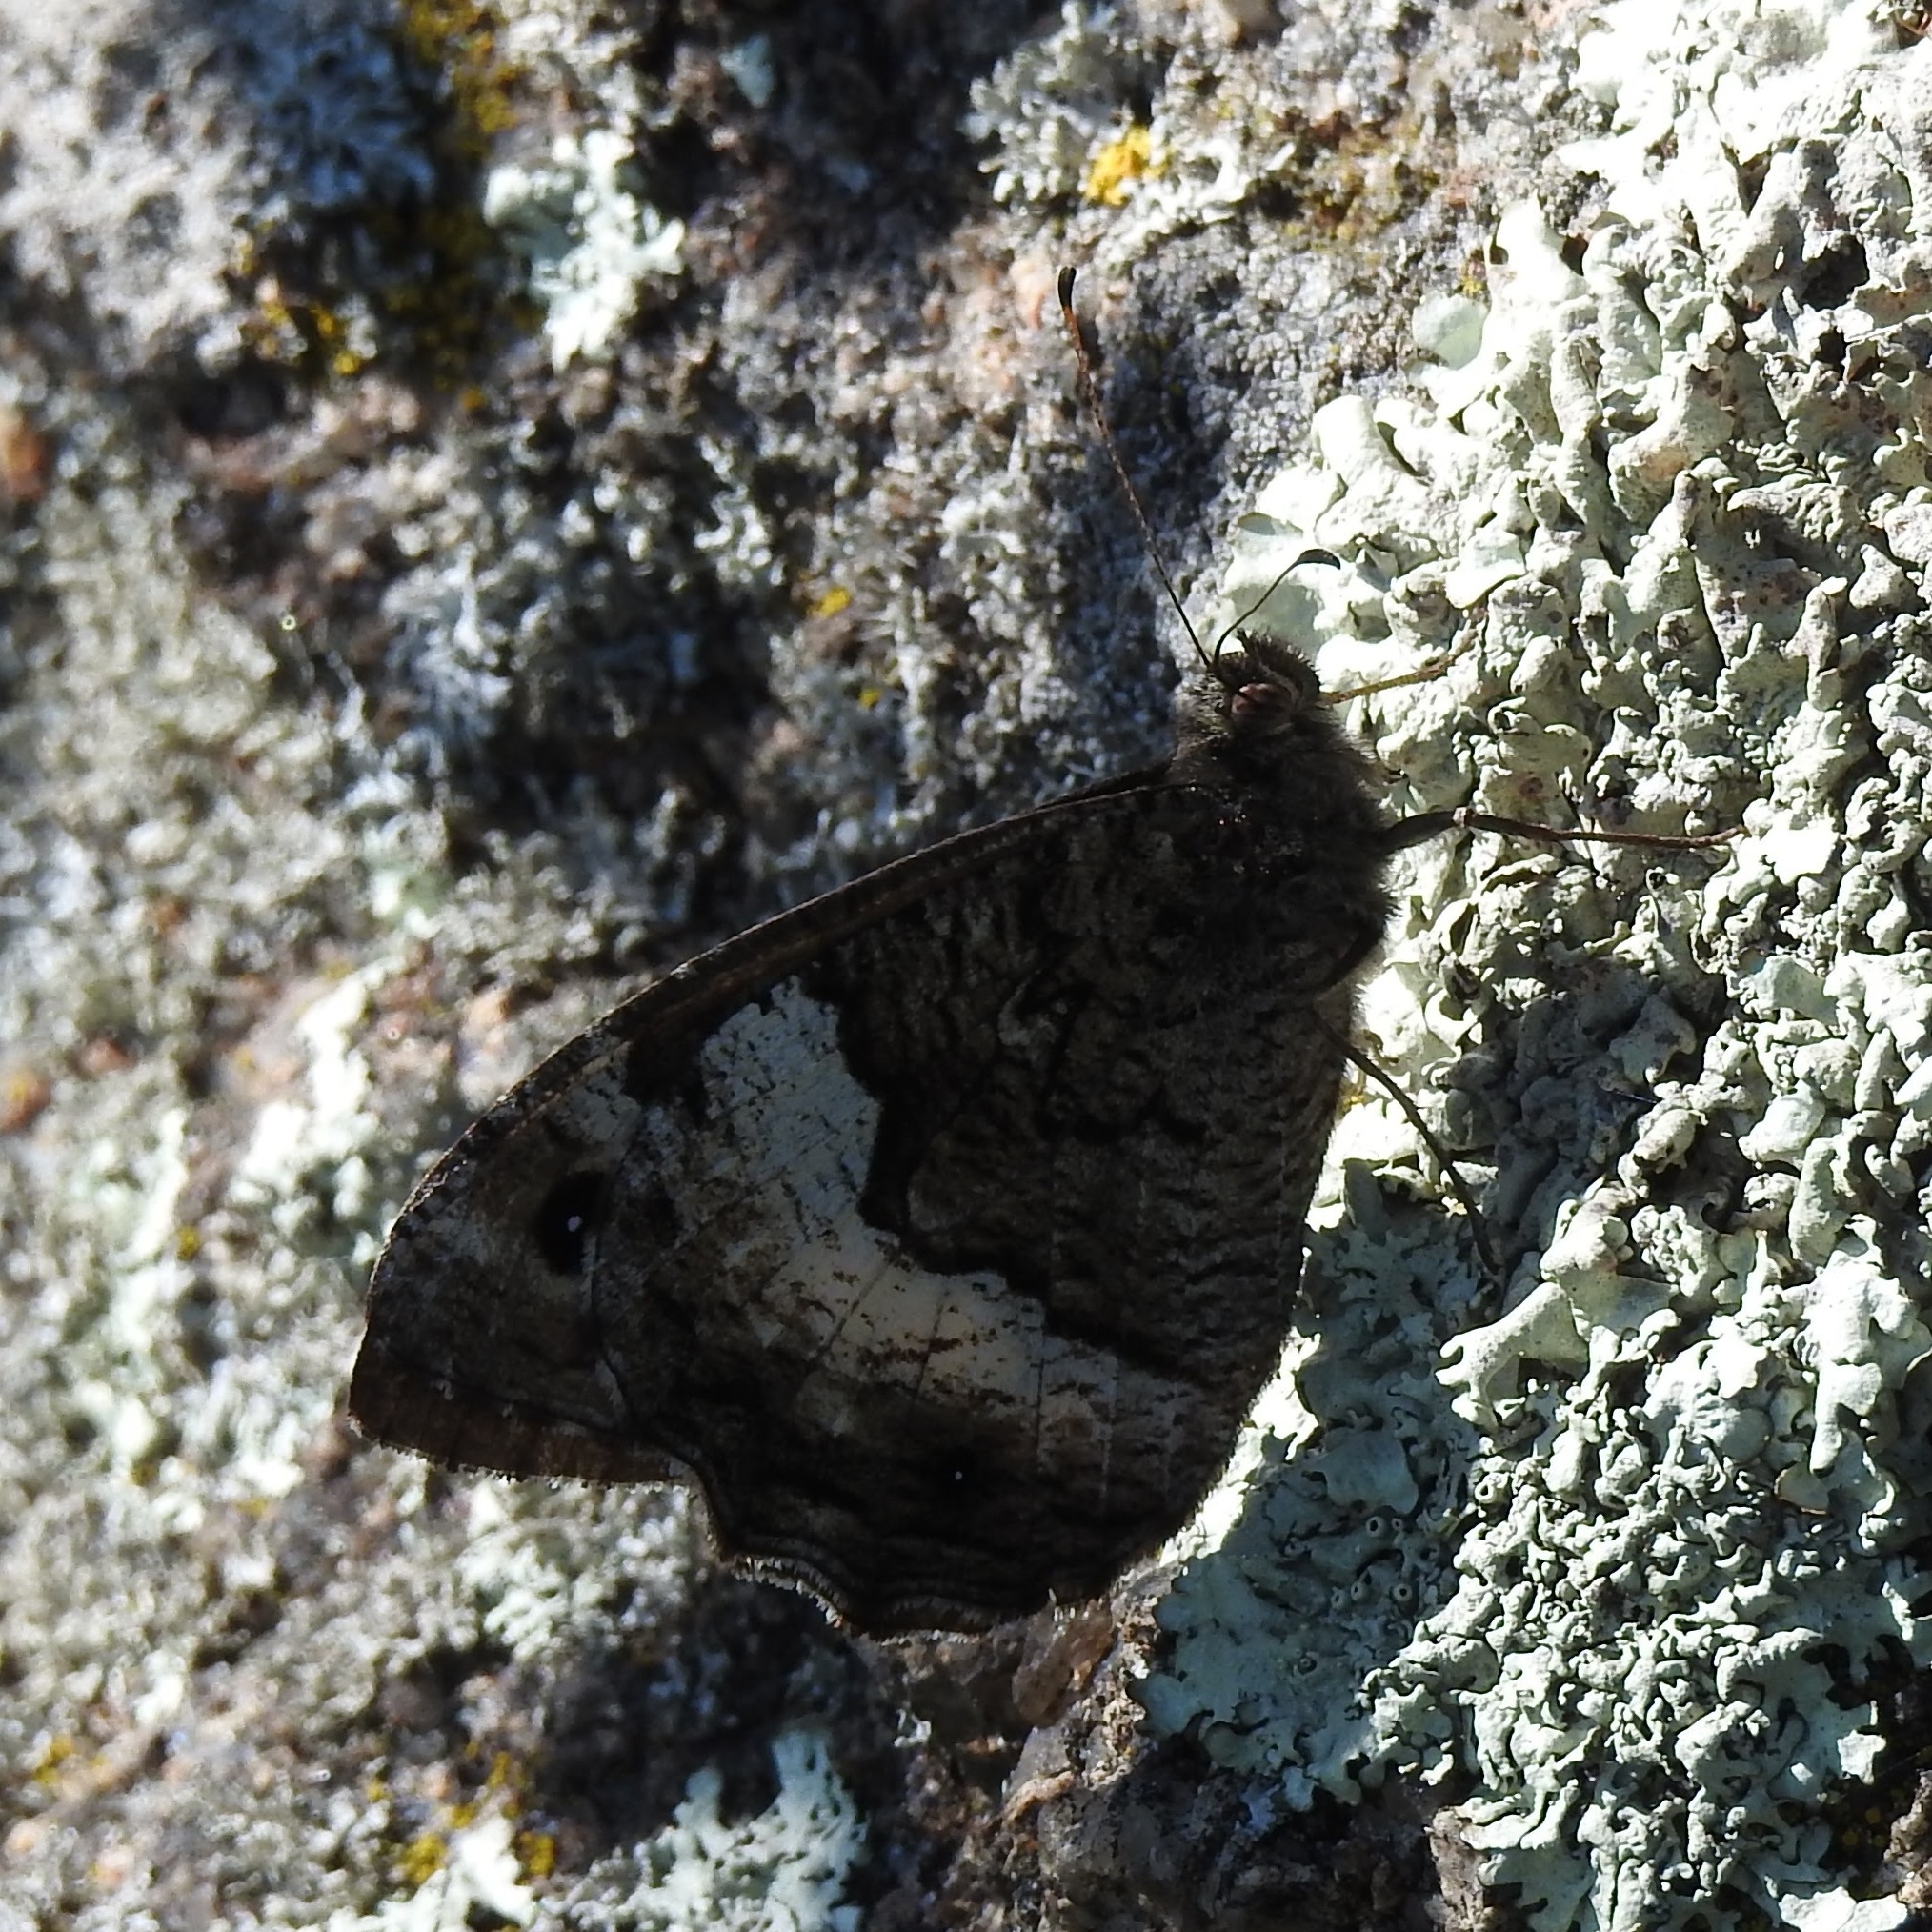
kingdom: Animalia
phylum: Arthropoda
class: Insecta
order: Lepidoptera
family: Nymphalidae
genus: Hipparchia
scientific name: Hipparchia fagi
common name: Woodland grayling
